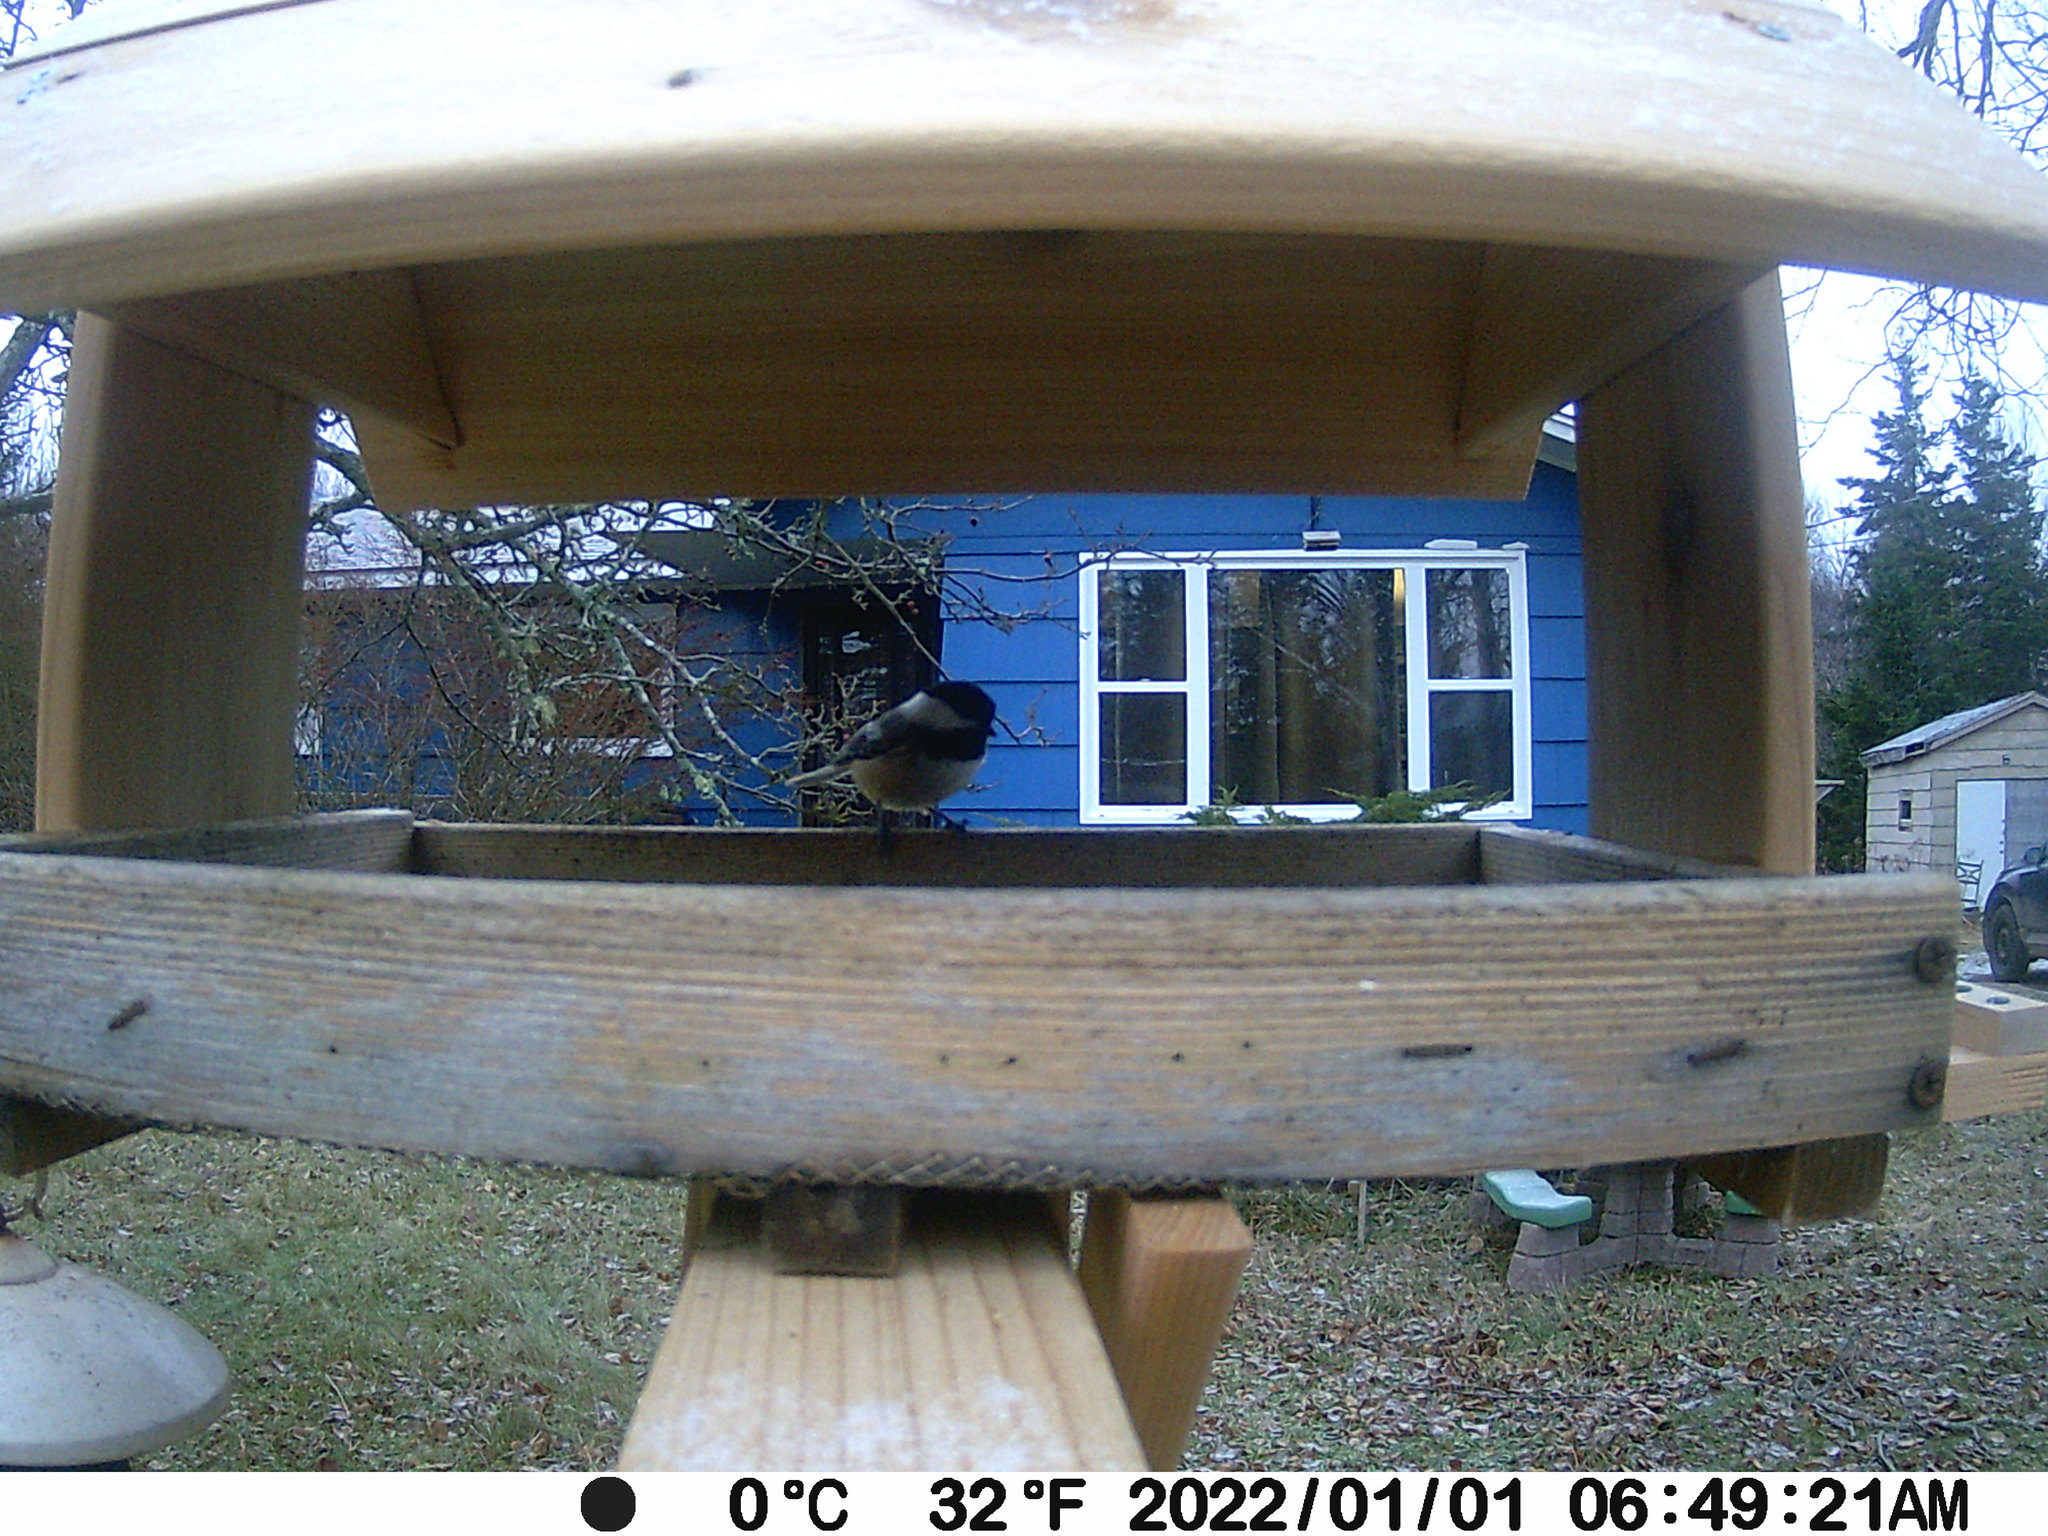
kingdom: Animalia
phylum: Chordata
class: Aves
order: Passeriformes
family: Paridae
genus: Poecile
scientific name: Poecile atricapillus
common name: Black-capped chickadee
